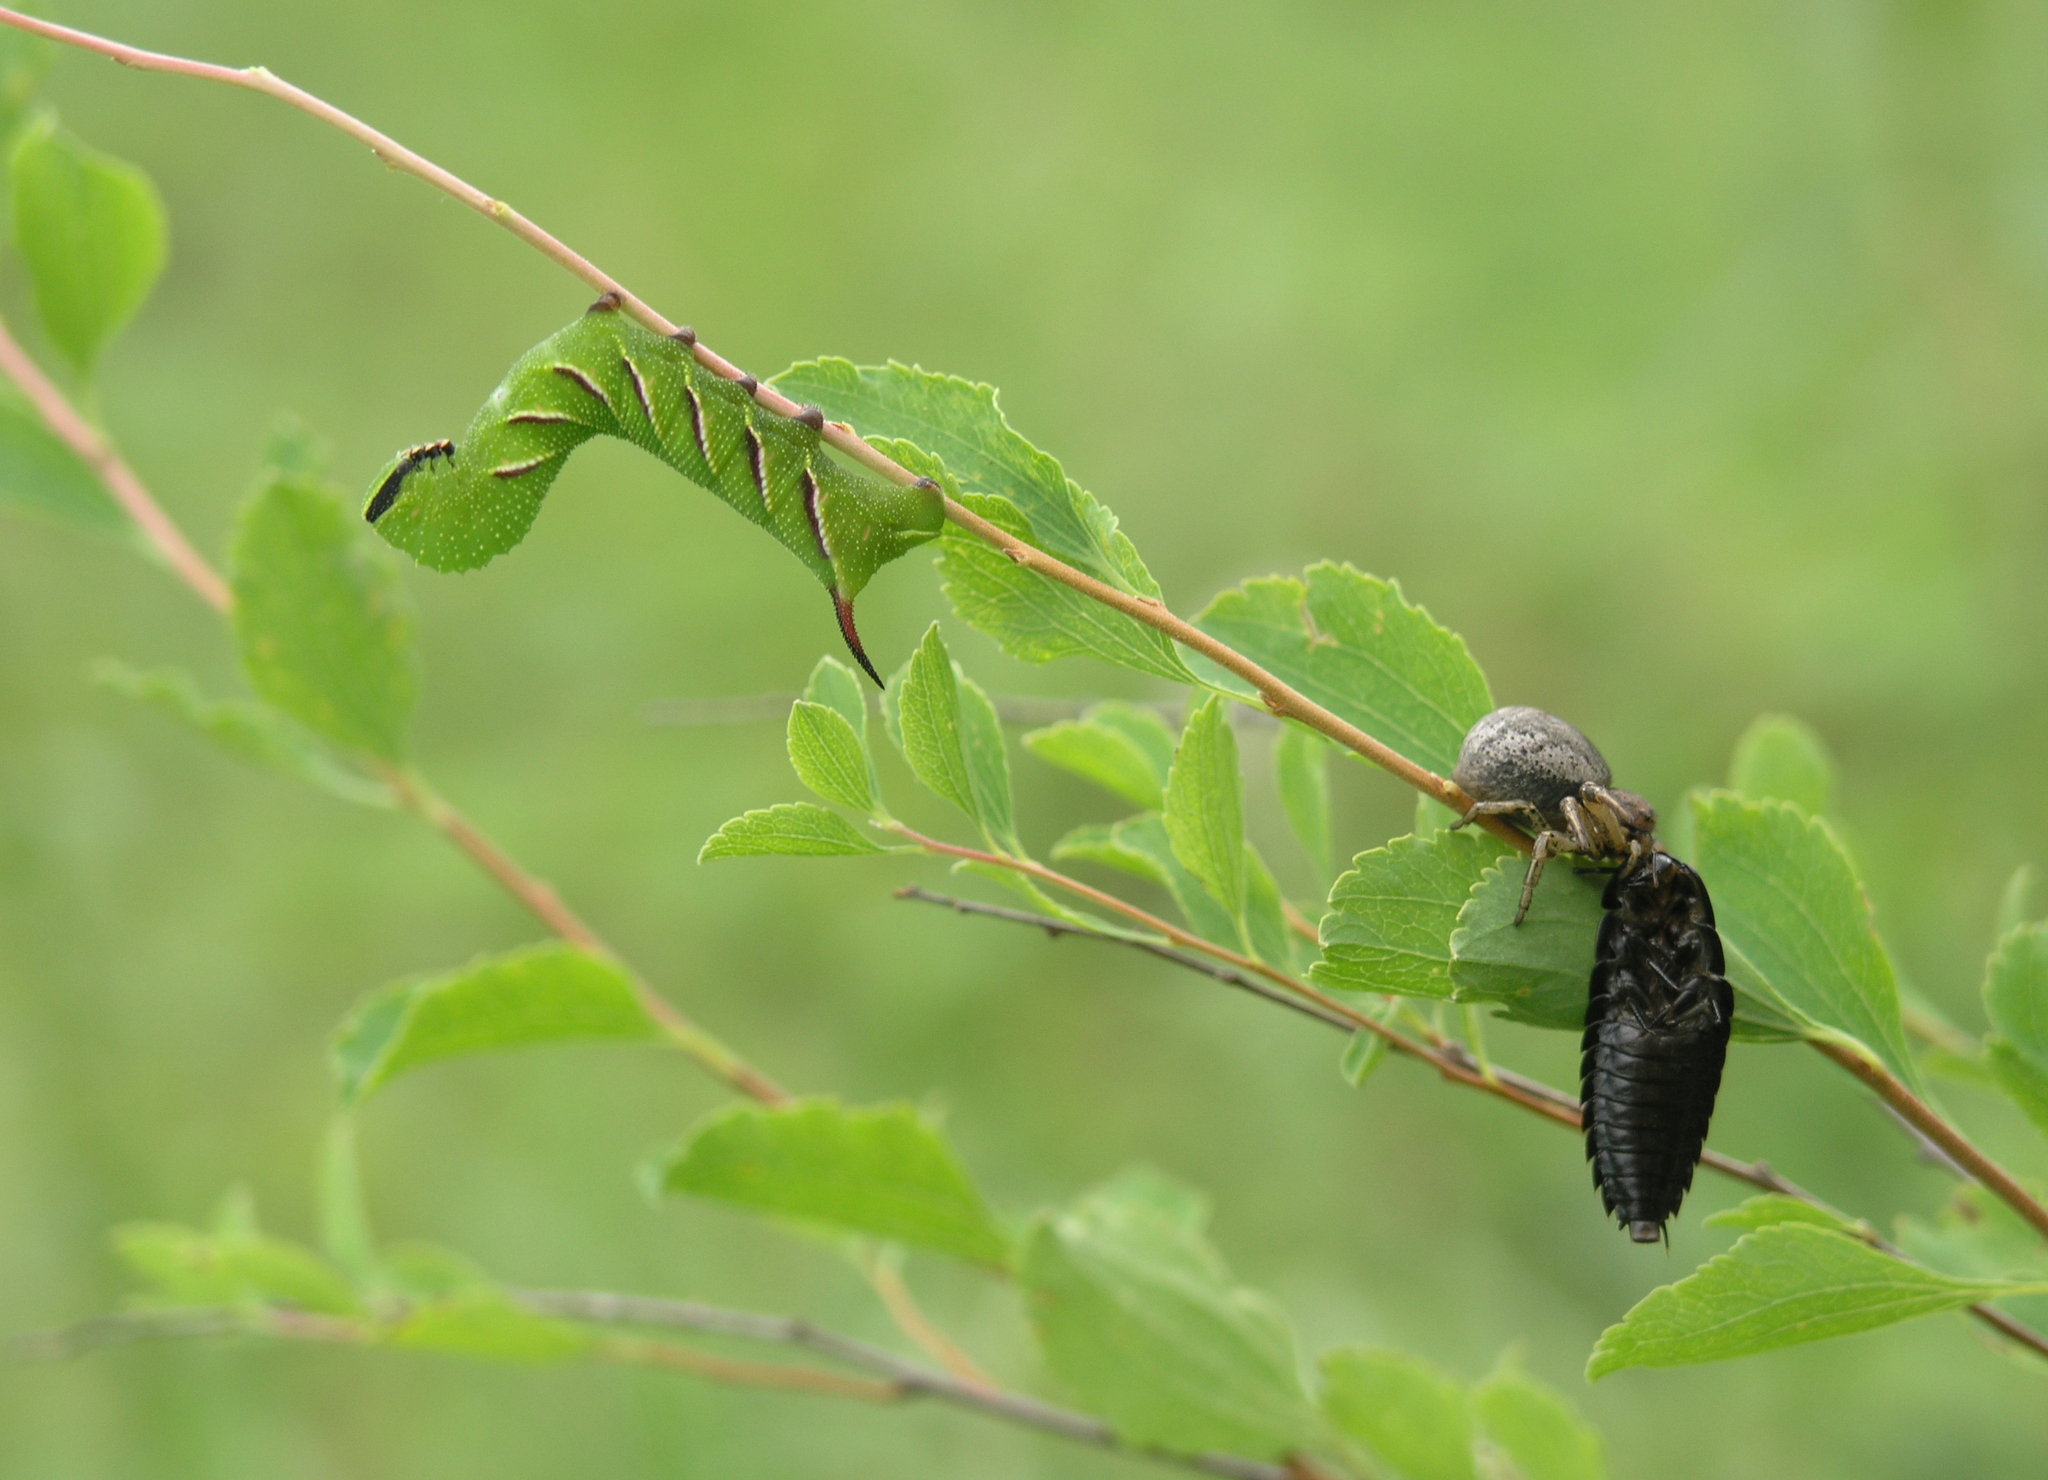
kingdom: Animalia
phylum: Arthropoda
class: Insecta
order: Lepidoptera
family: Sphingidae
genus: Sphinx
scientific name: Sphinx ligustri
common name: Privet hawk-moth
